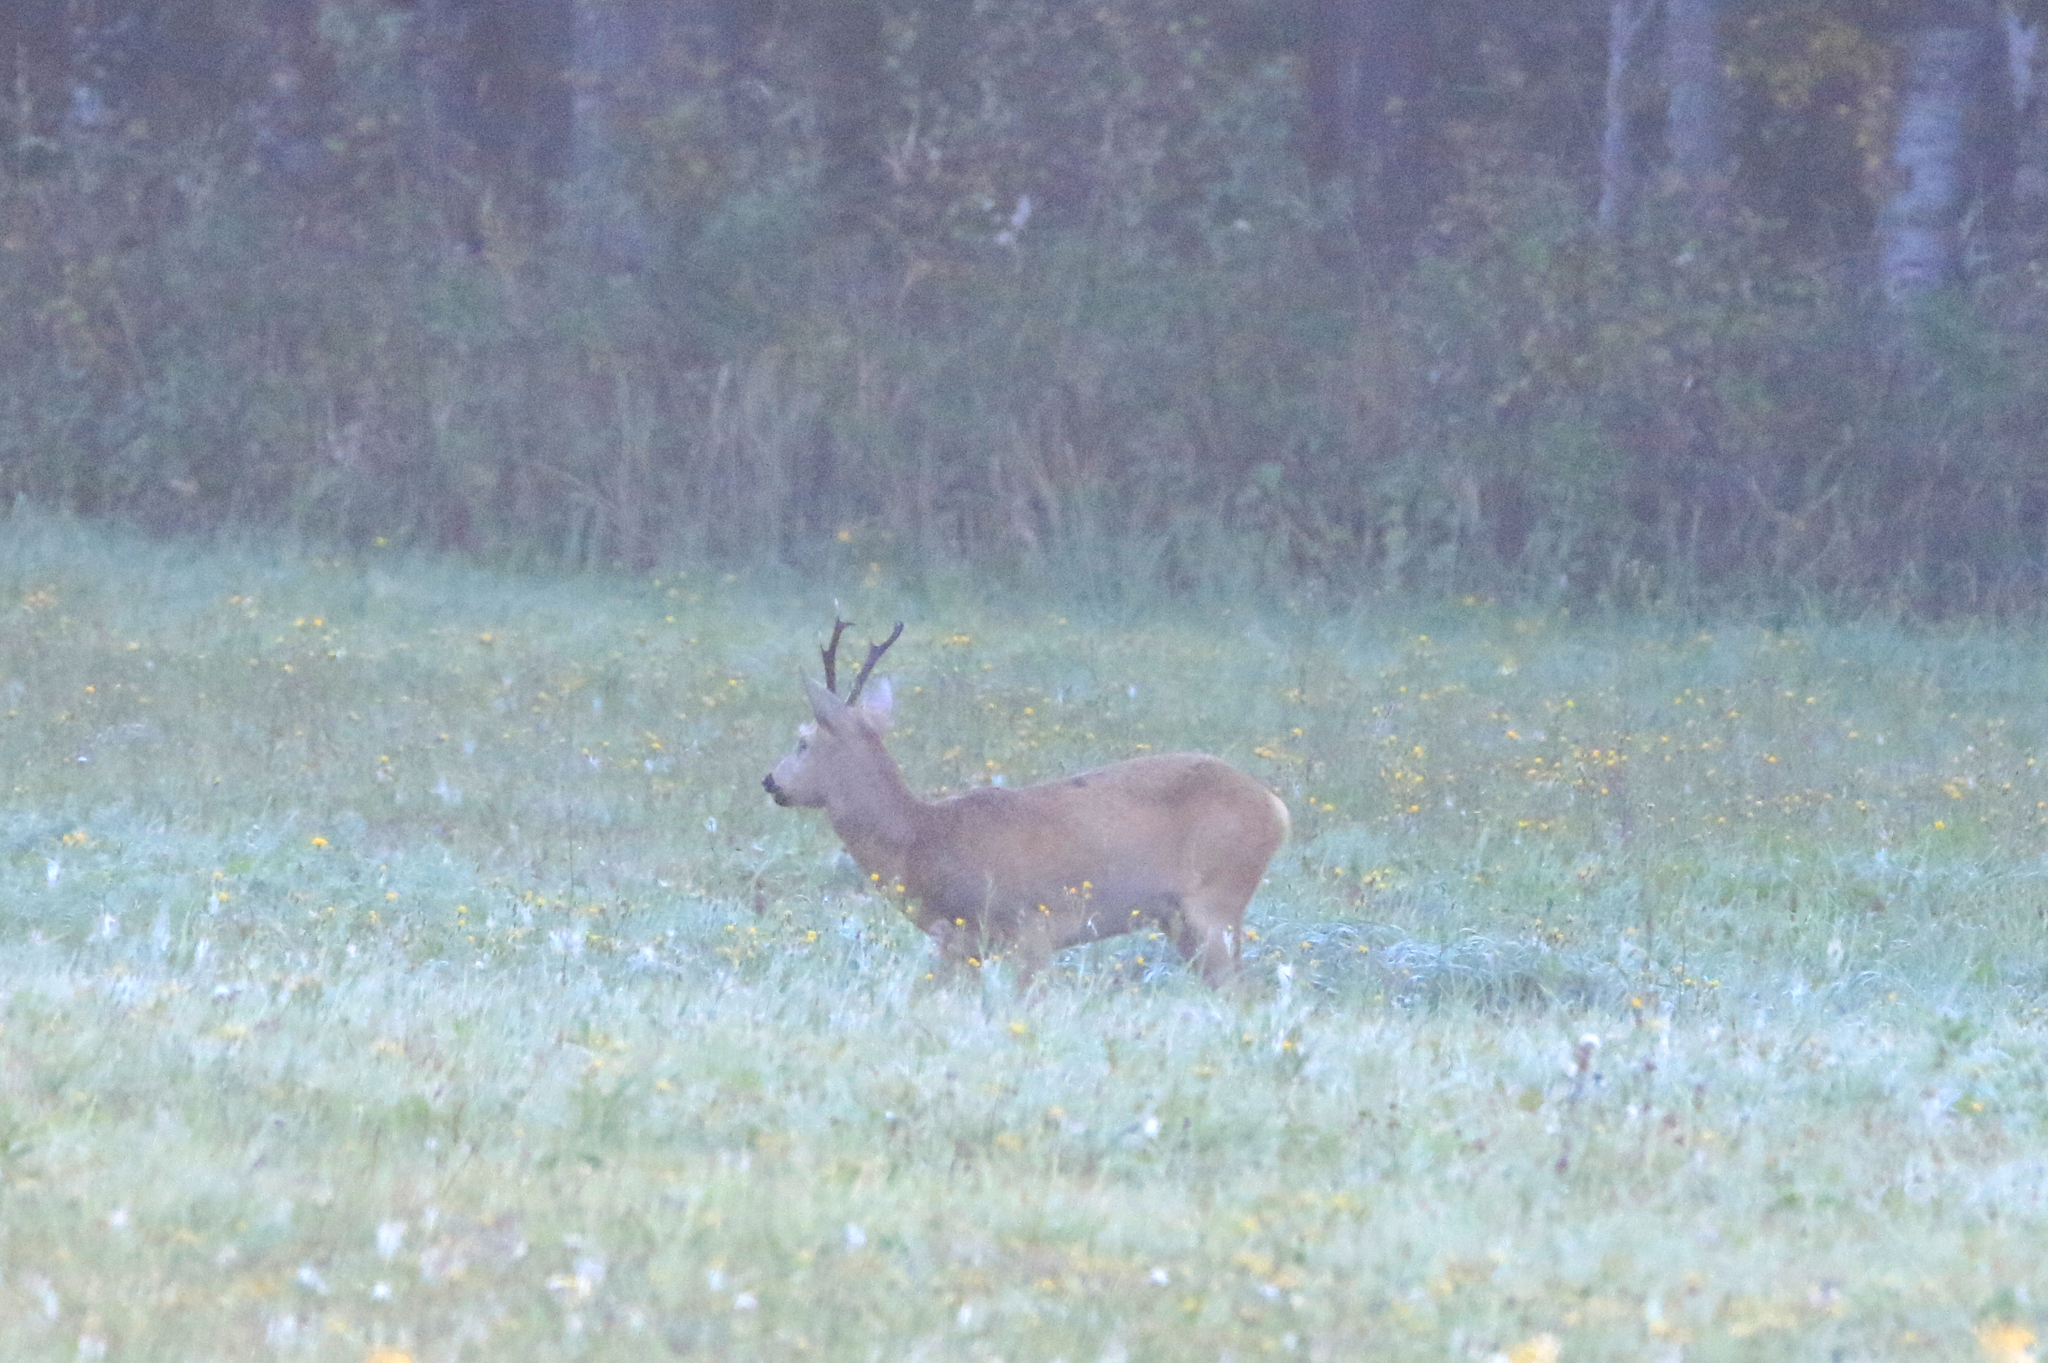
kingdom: Animalia
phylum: Chordata
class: Mammalia
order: Artiodactyla
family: Cervidae
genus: Capreolus
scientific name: Capreolus pygargus
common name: Siberian roe
